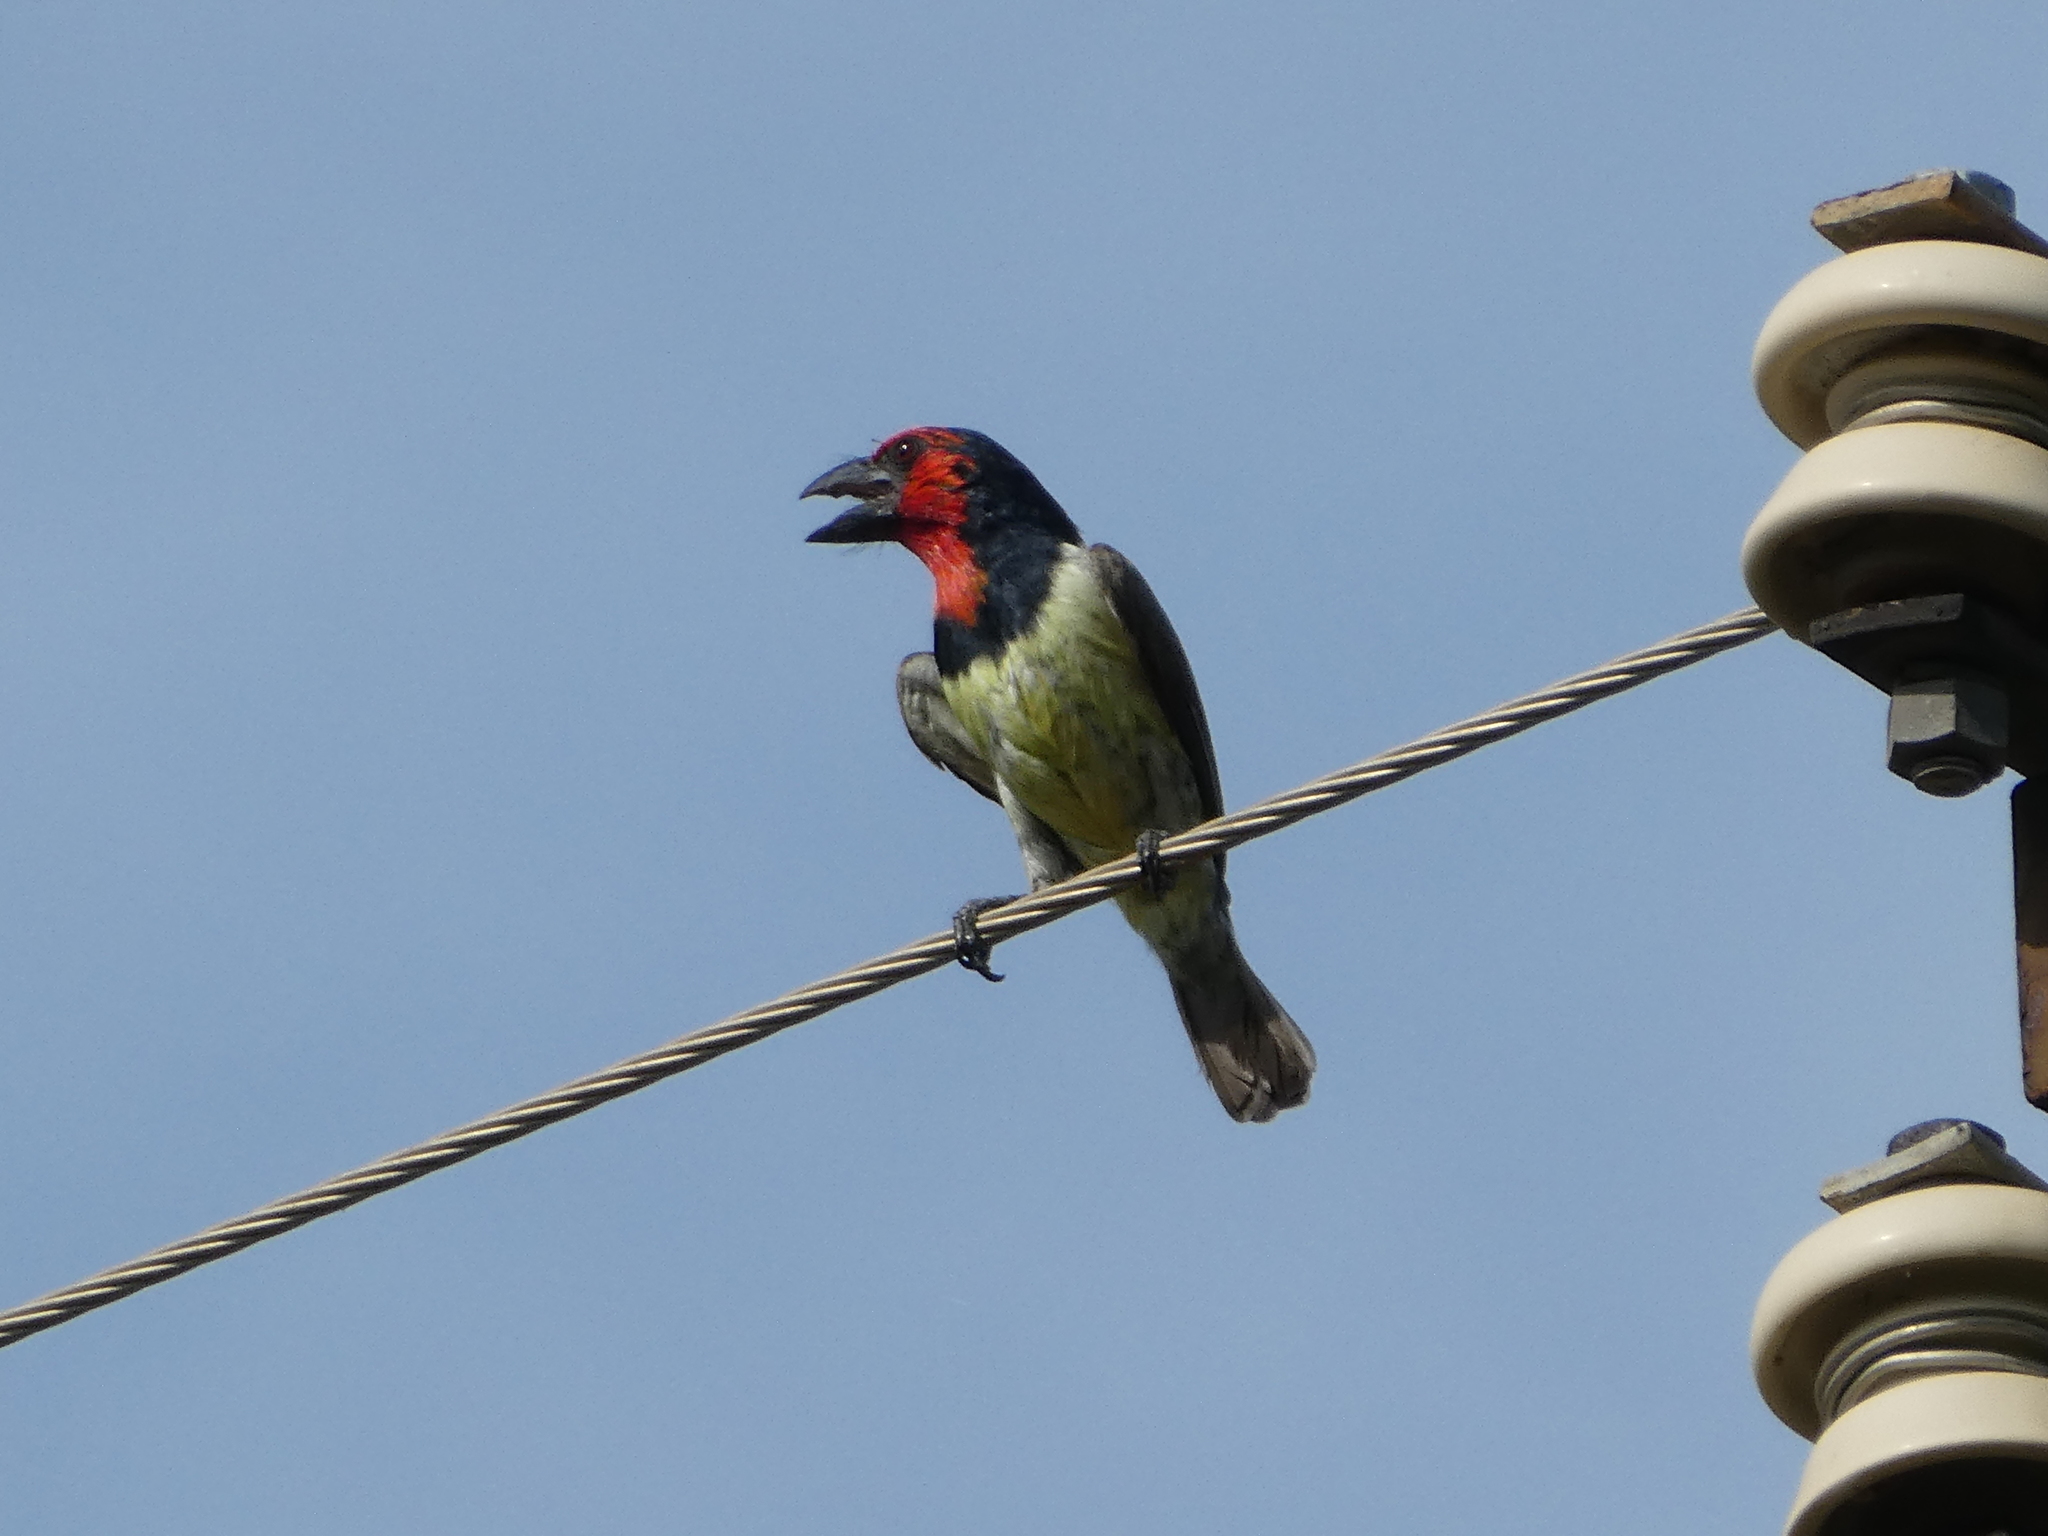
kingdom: Animalia
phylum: Chordata
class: Aves
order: Piciformes
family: Lybiidae
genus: Lybius
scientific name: Lybius torquatus
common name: Black-collared barbet
